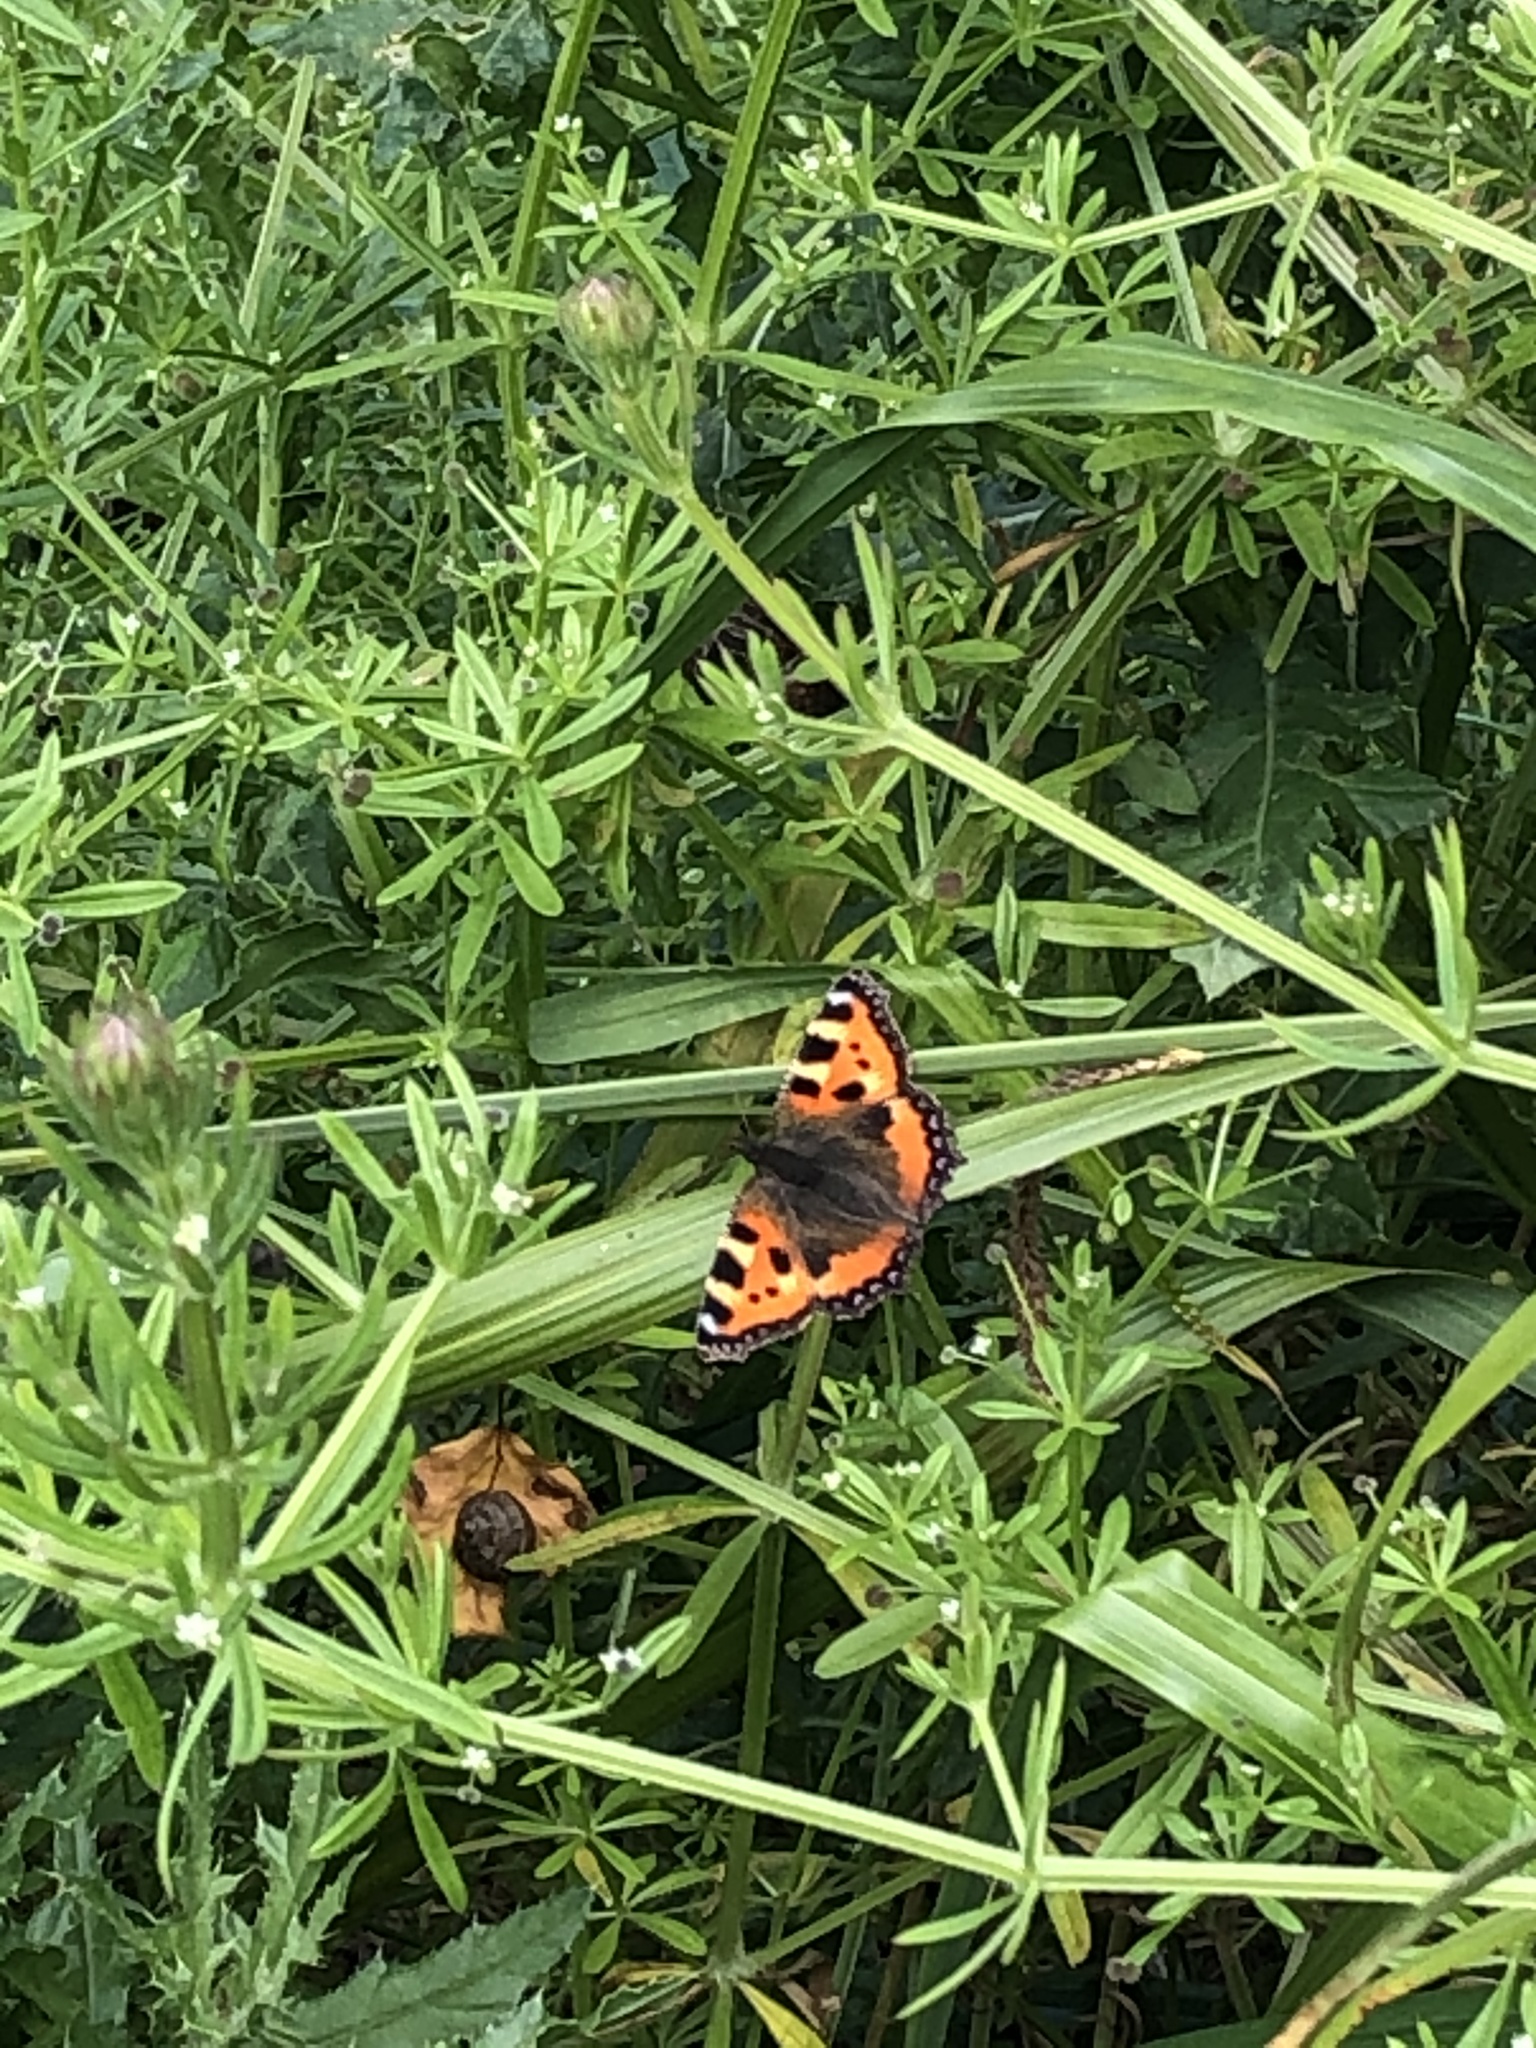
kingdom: Animalia
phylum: Arthropoda
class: Insecta
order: Lepidoptera
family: Nymphalidae
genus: Aglais
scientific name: Aglais urticae
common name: Small tortoiseshell
